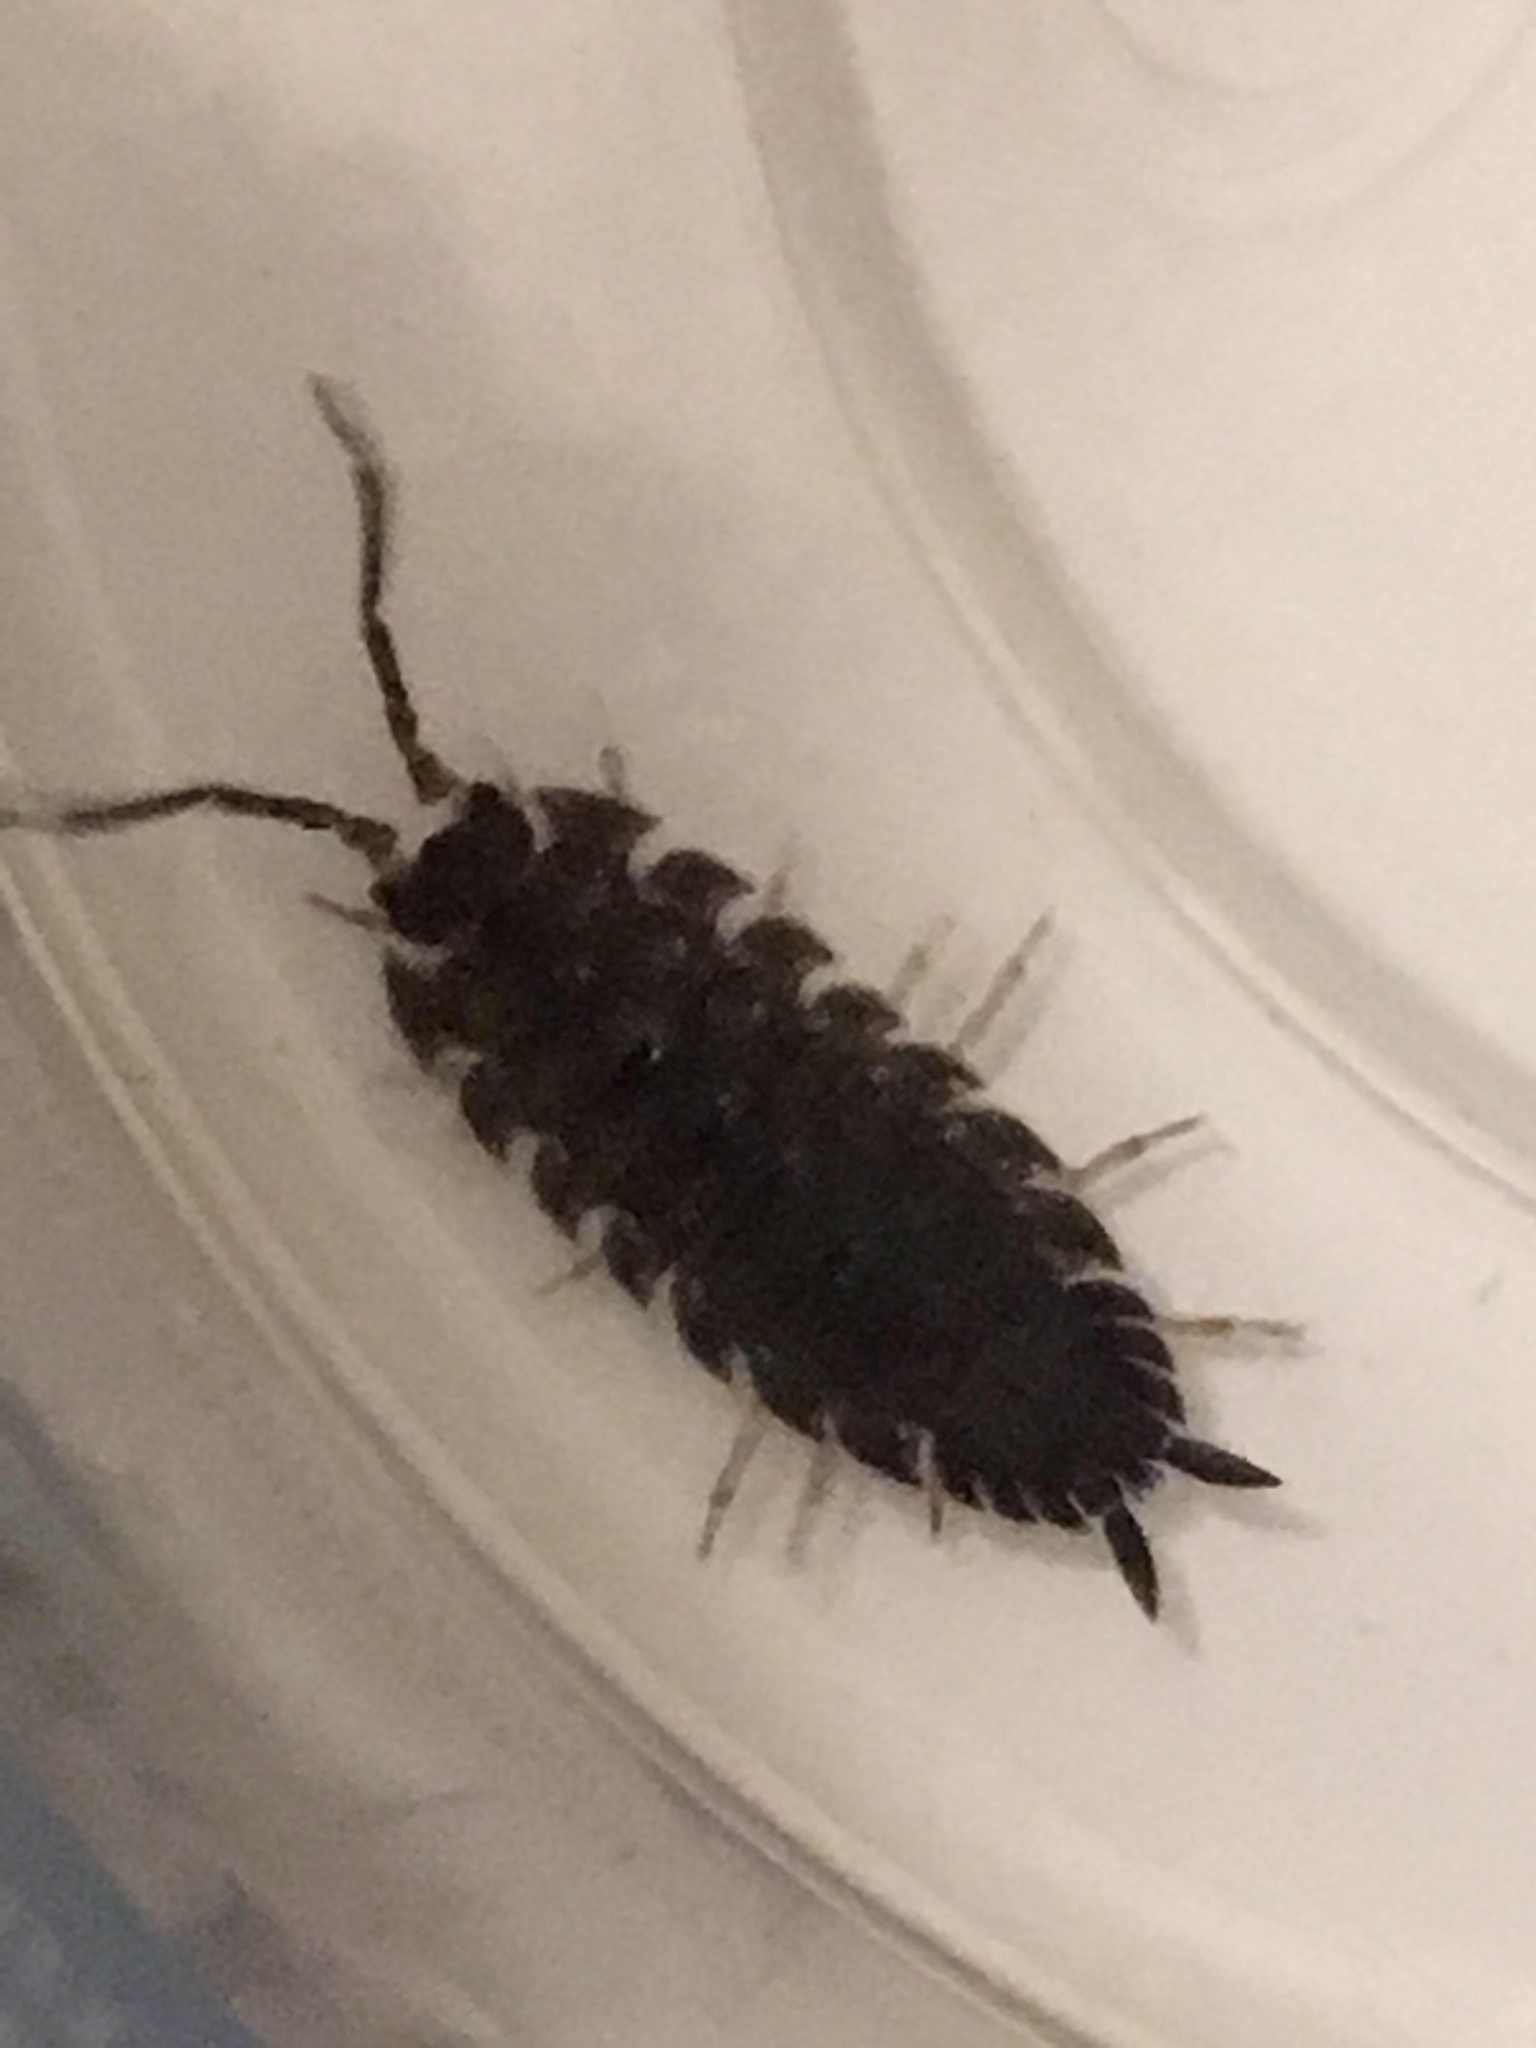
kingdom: Animalia
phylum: Arthropoda
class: Malacostraca
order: Isopoda
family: Porcellionidae
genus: Porcellio
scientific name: Porcellio scaber
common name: Common rough woodlouse
